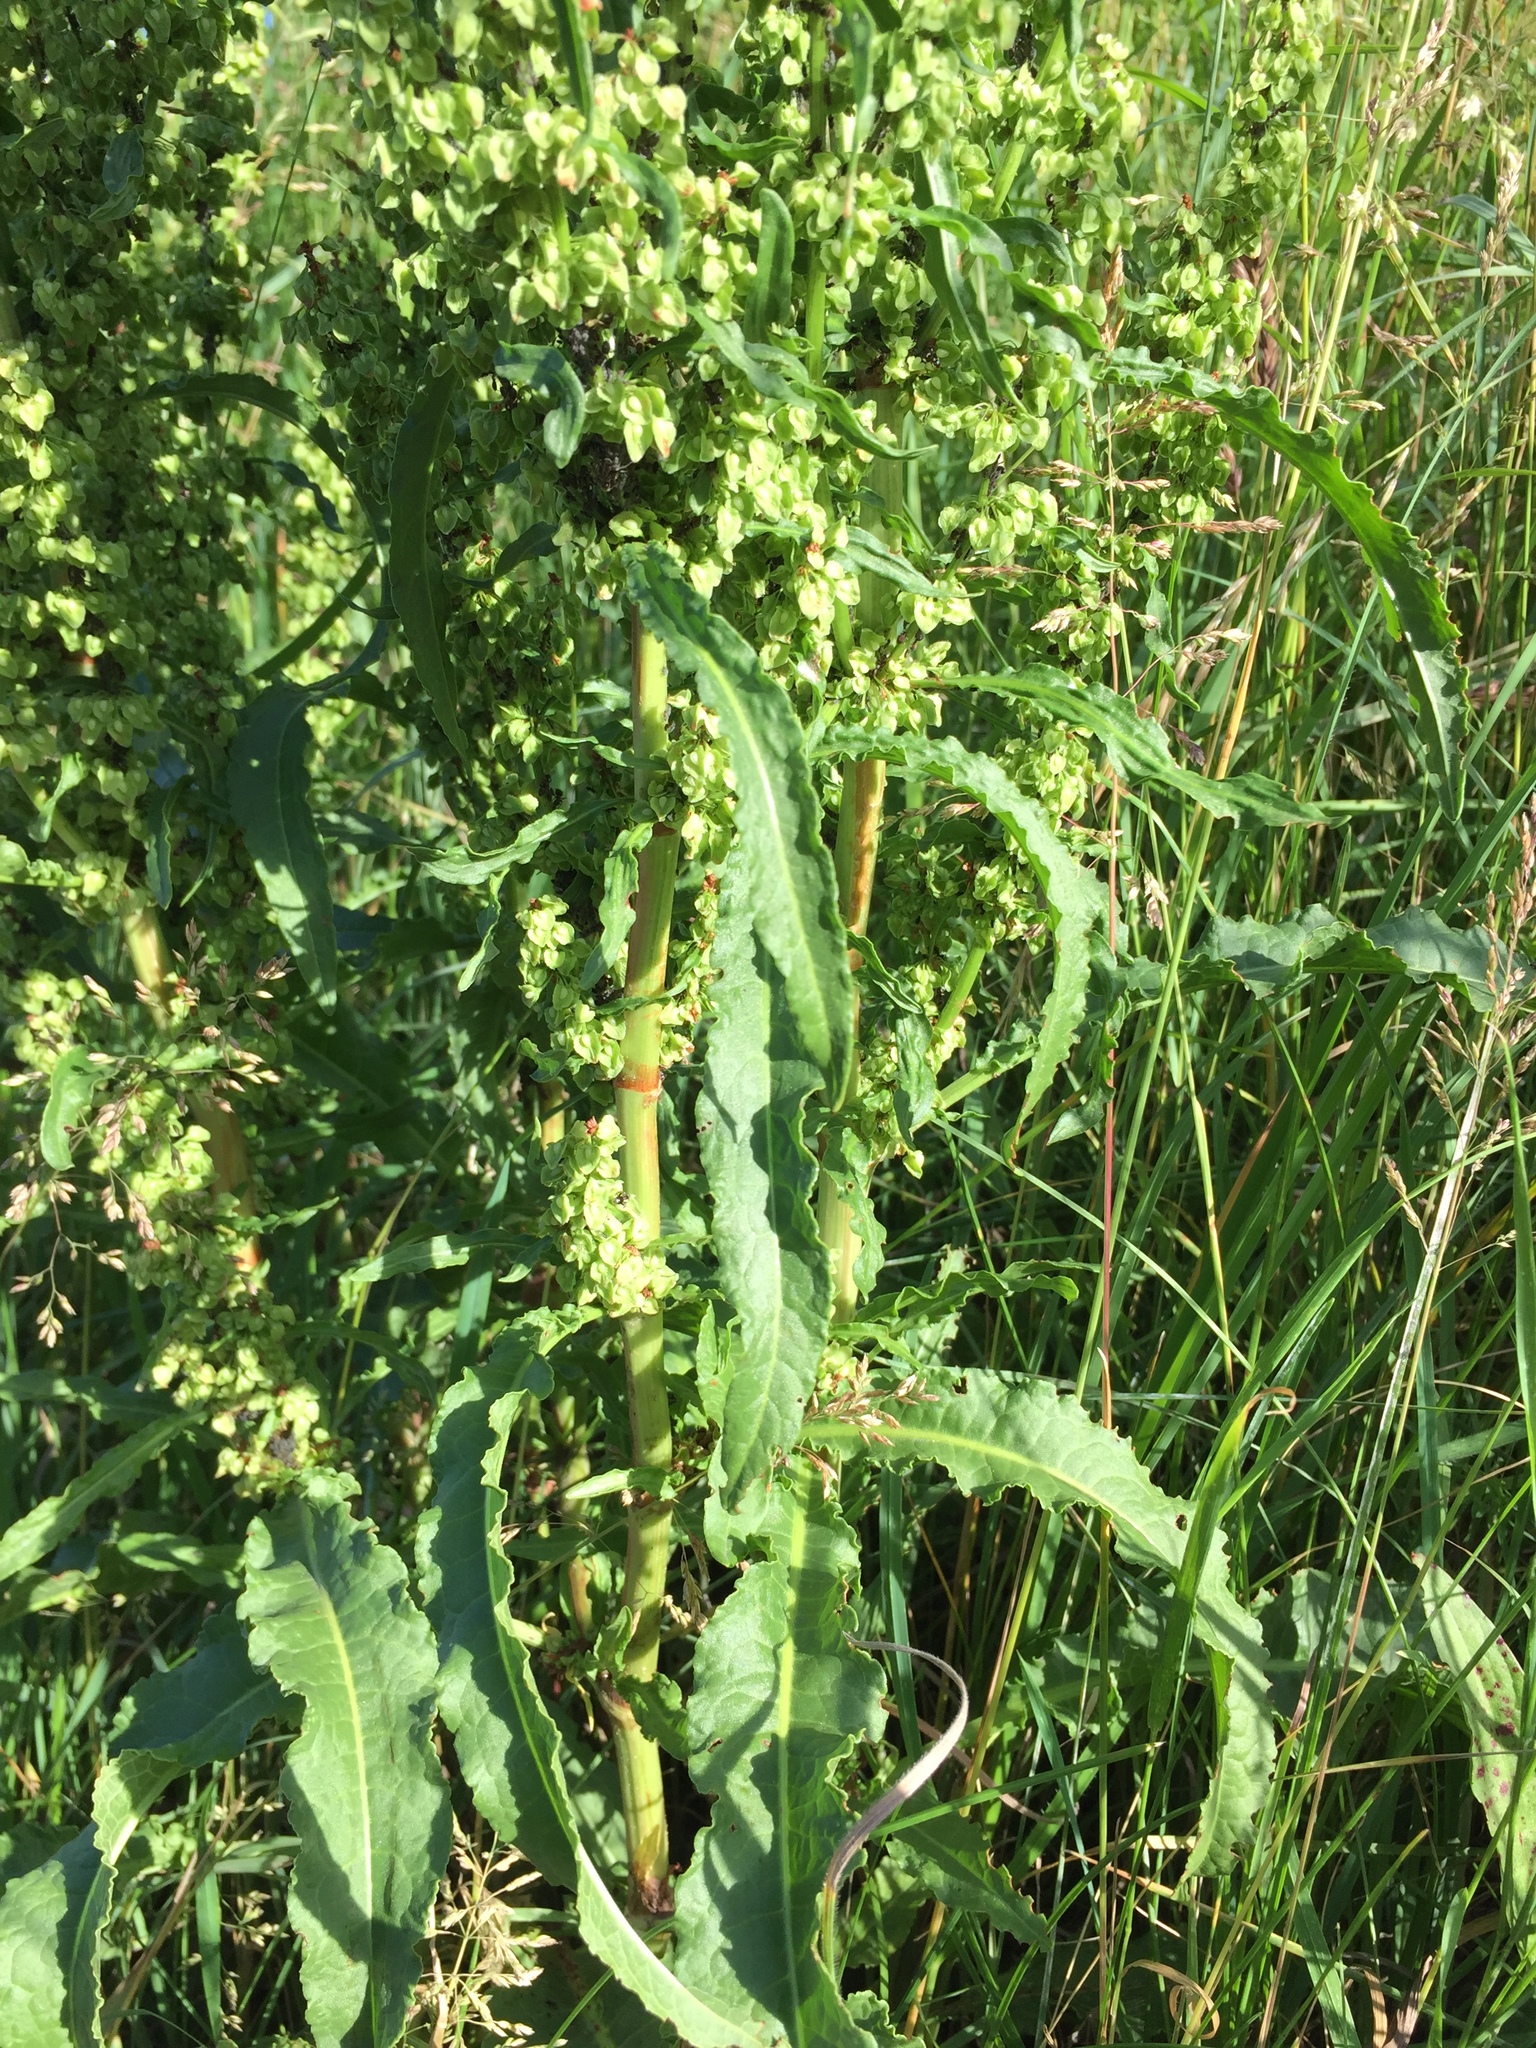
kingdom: Plantae
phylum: Tracheophyta
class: Magnoliopsida
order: Caryophyllales
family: Polygonaceae
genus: Rumex
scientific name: Rumex crispus
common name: Curled dock
